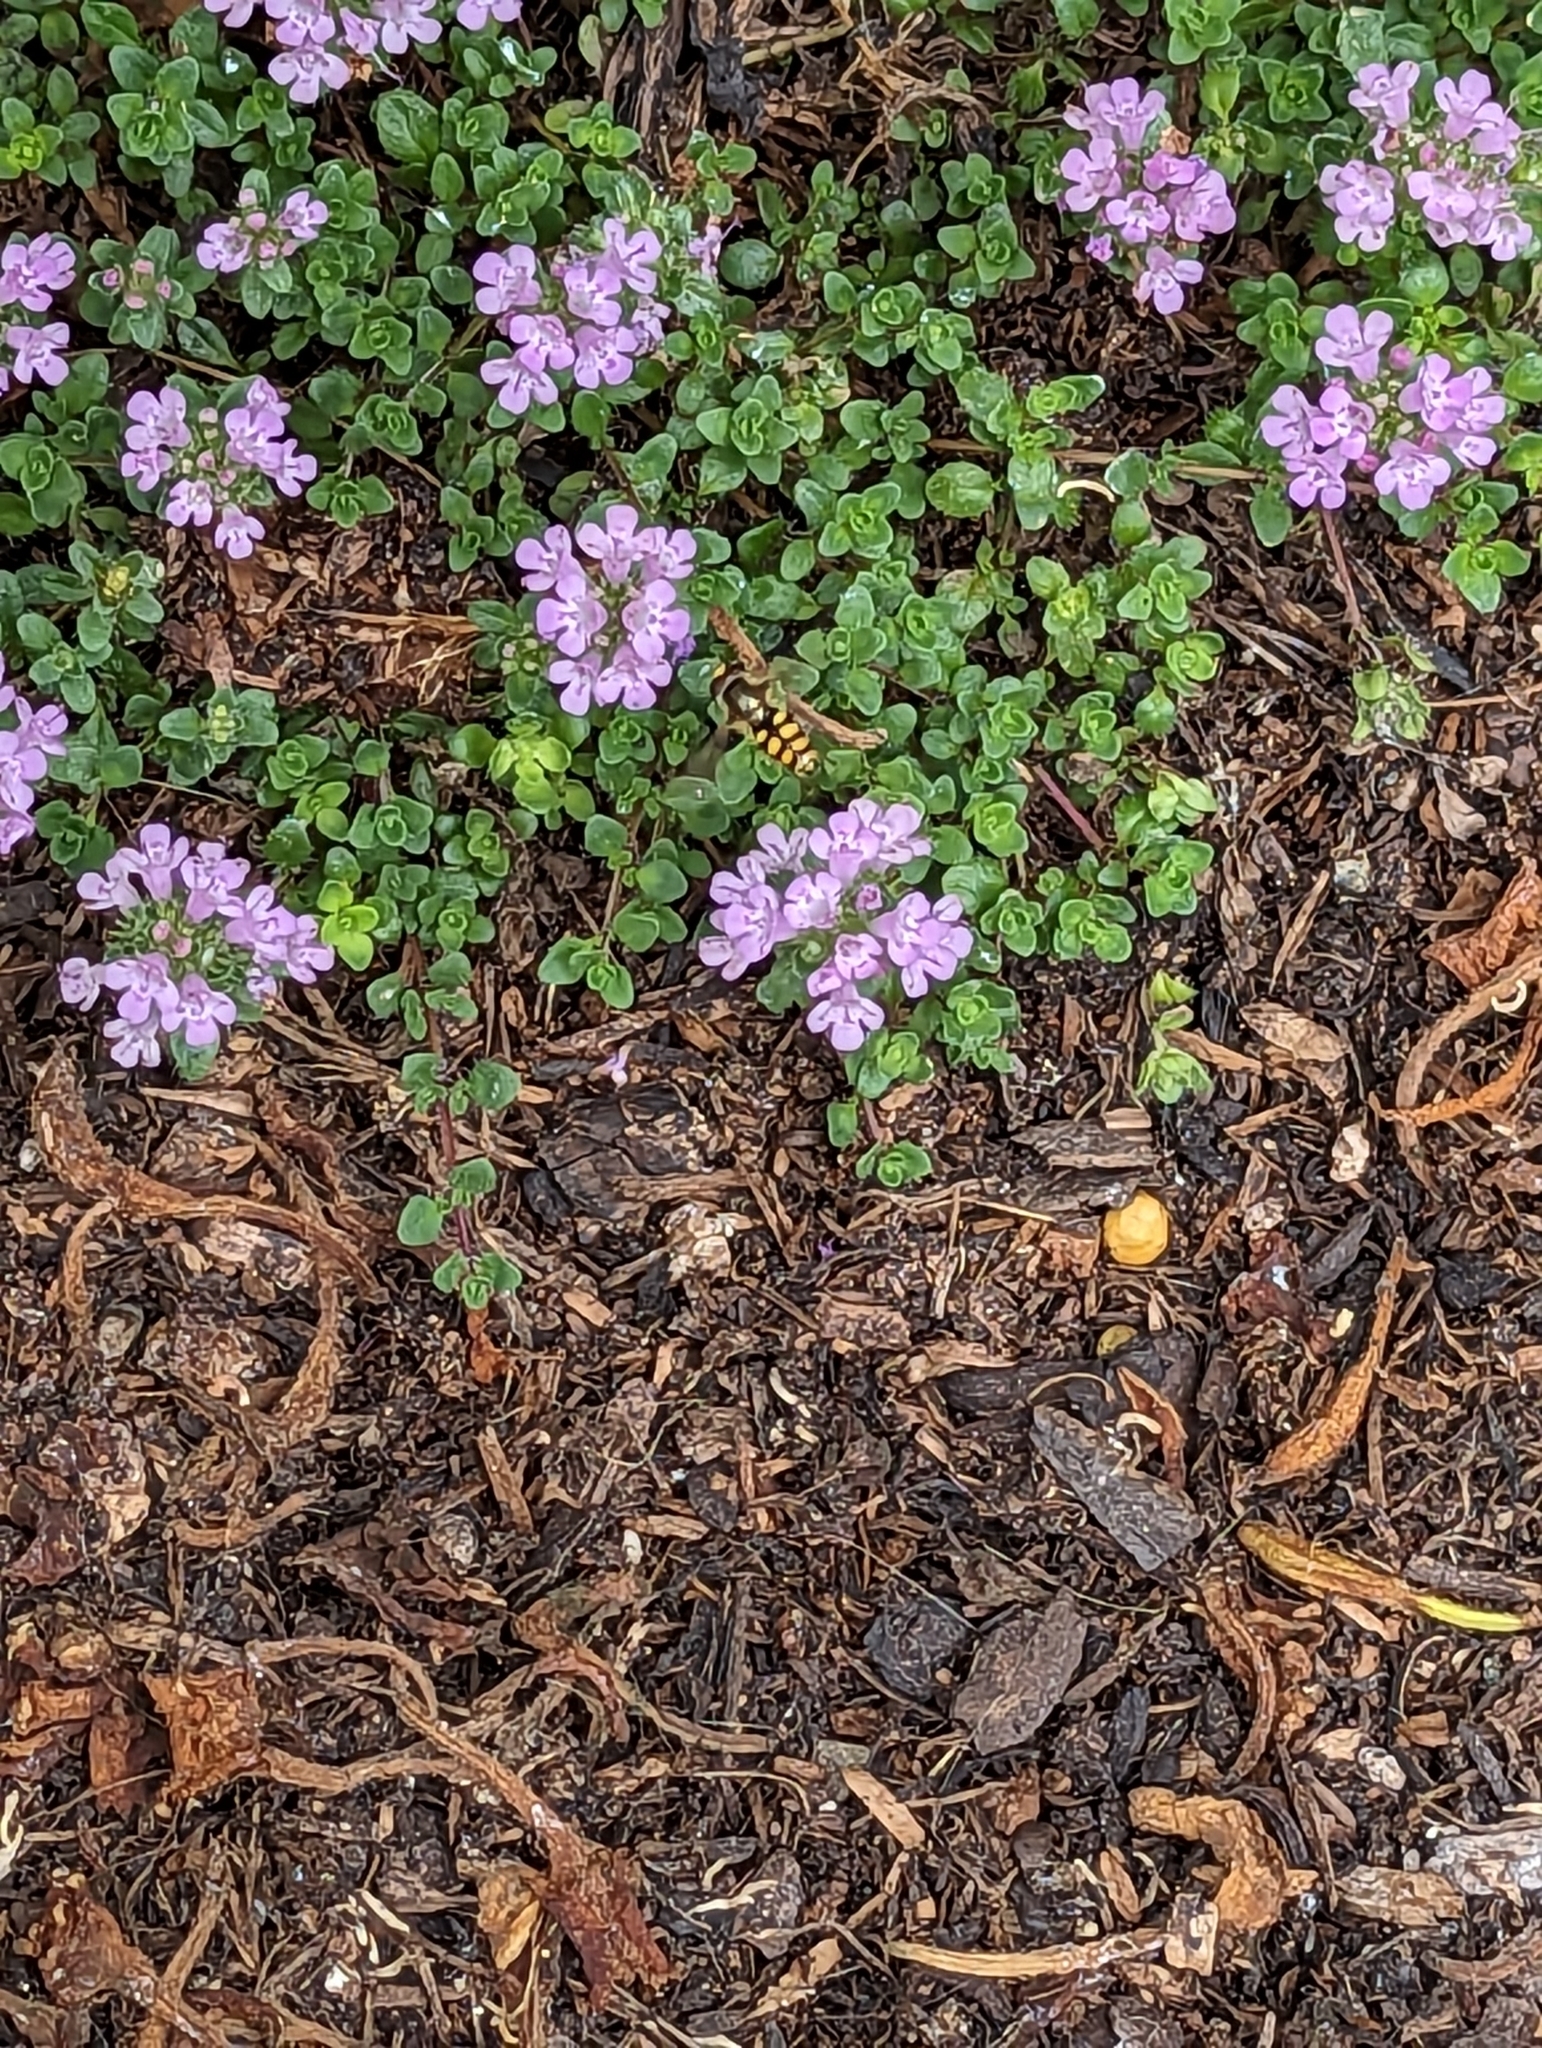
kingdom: Animalia
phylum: Arthropoda
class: Insecta
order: Diptera
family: Syrphidae
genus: Eupeodes
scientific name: Eupeodes corollae
